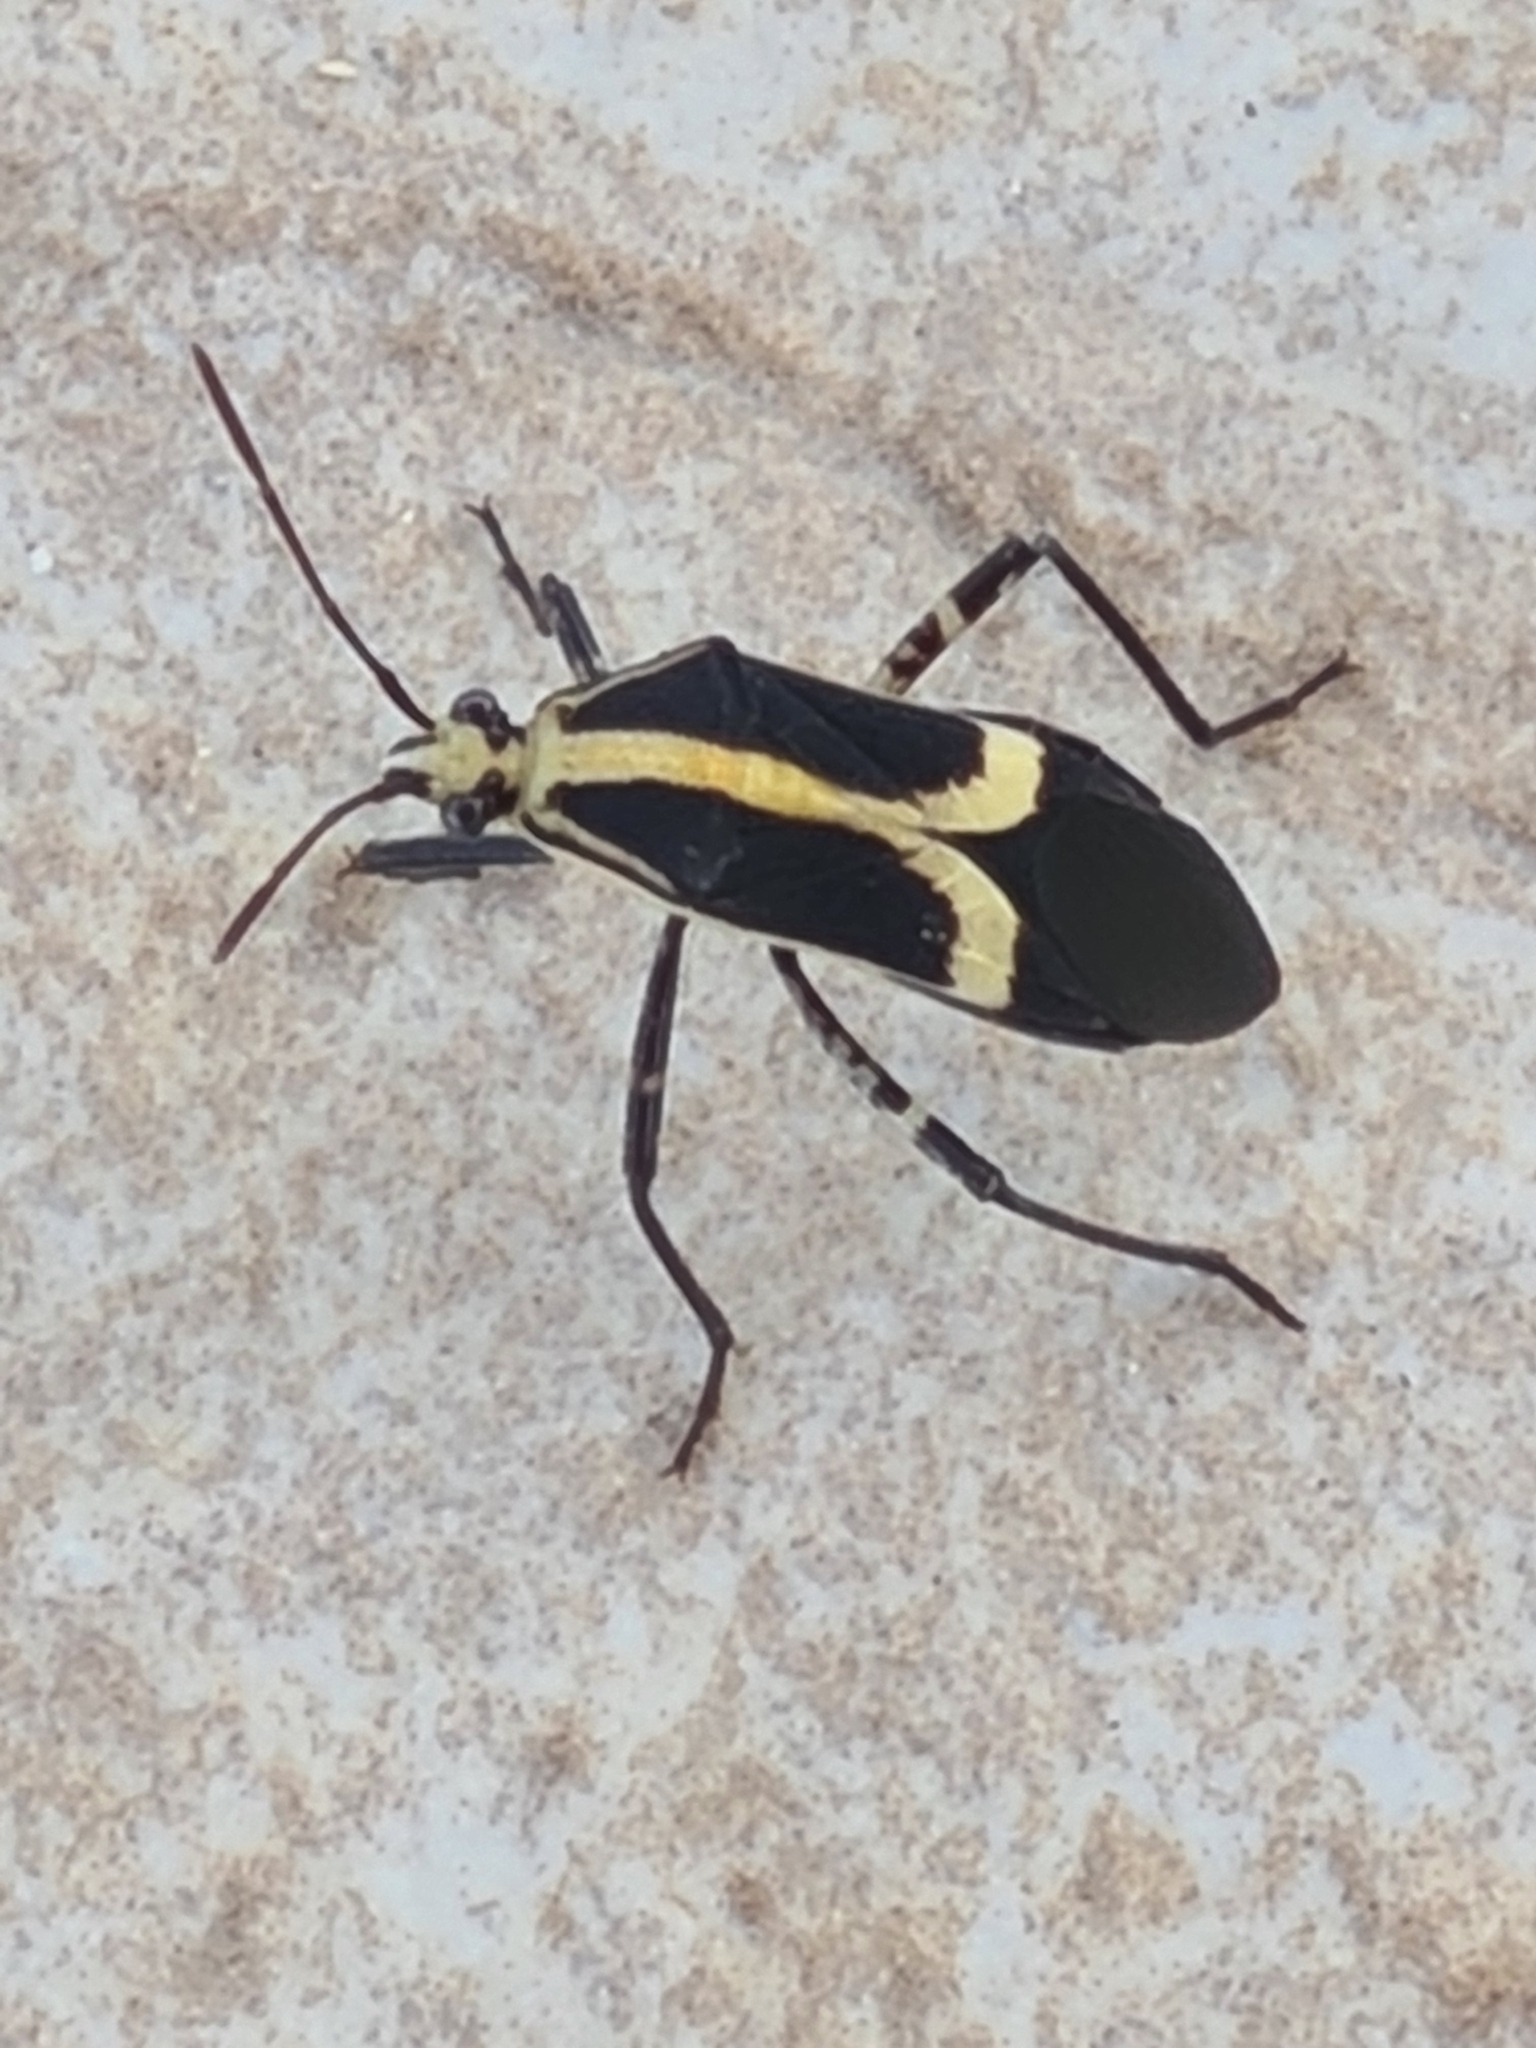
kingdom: Animalia
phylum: Arthropoda
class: Insecta
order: Hemiptera
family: Coreidae
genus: Hypselonotus
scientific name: Hypselonotus linea
